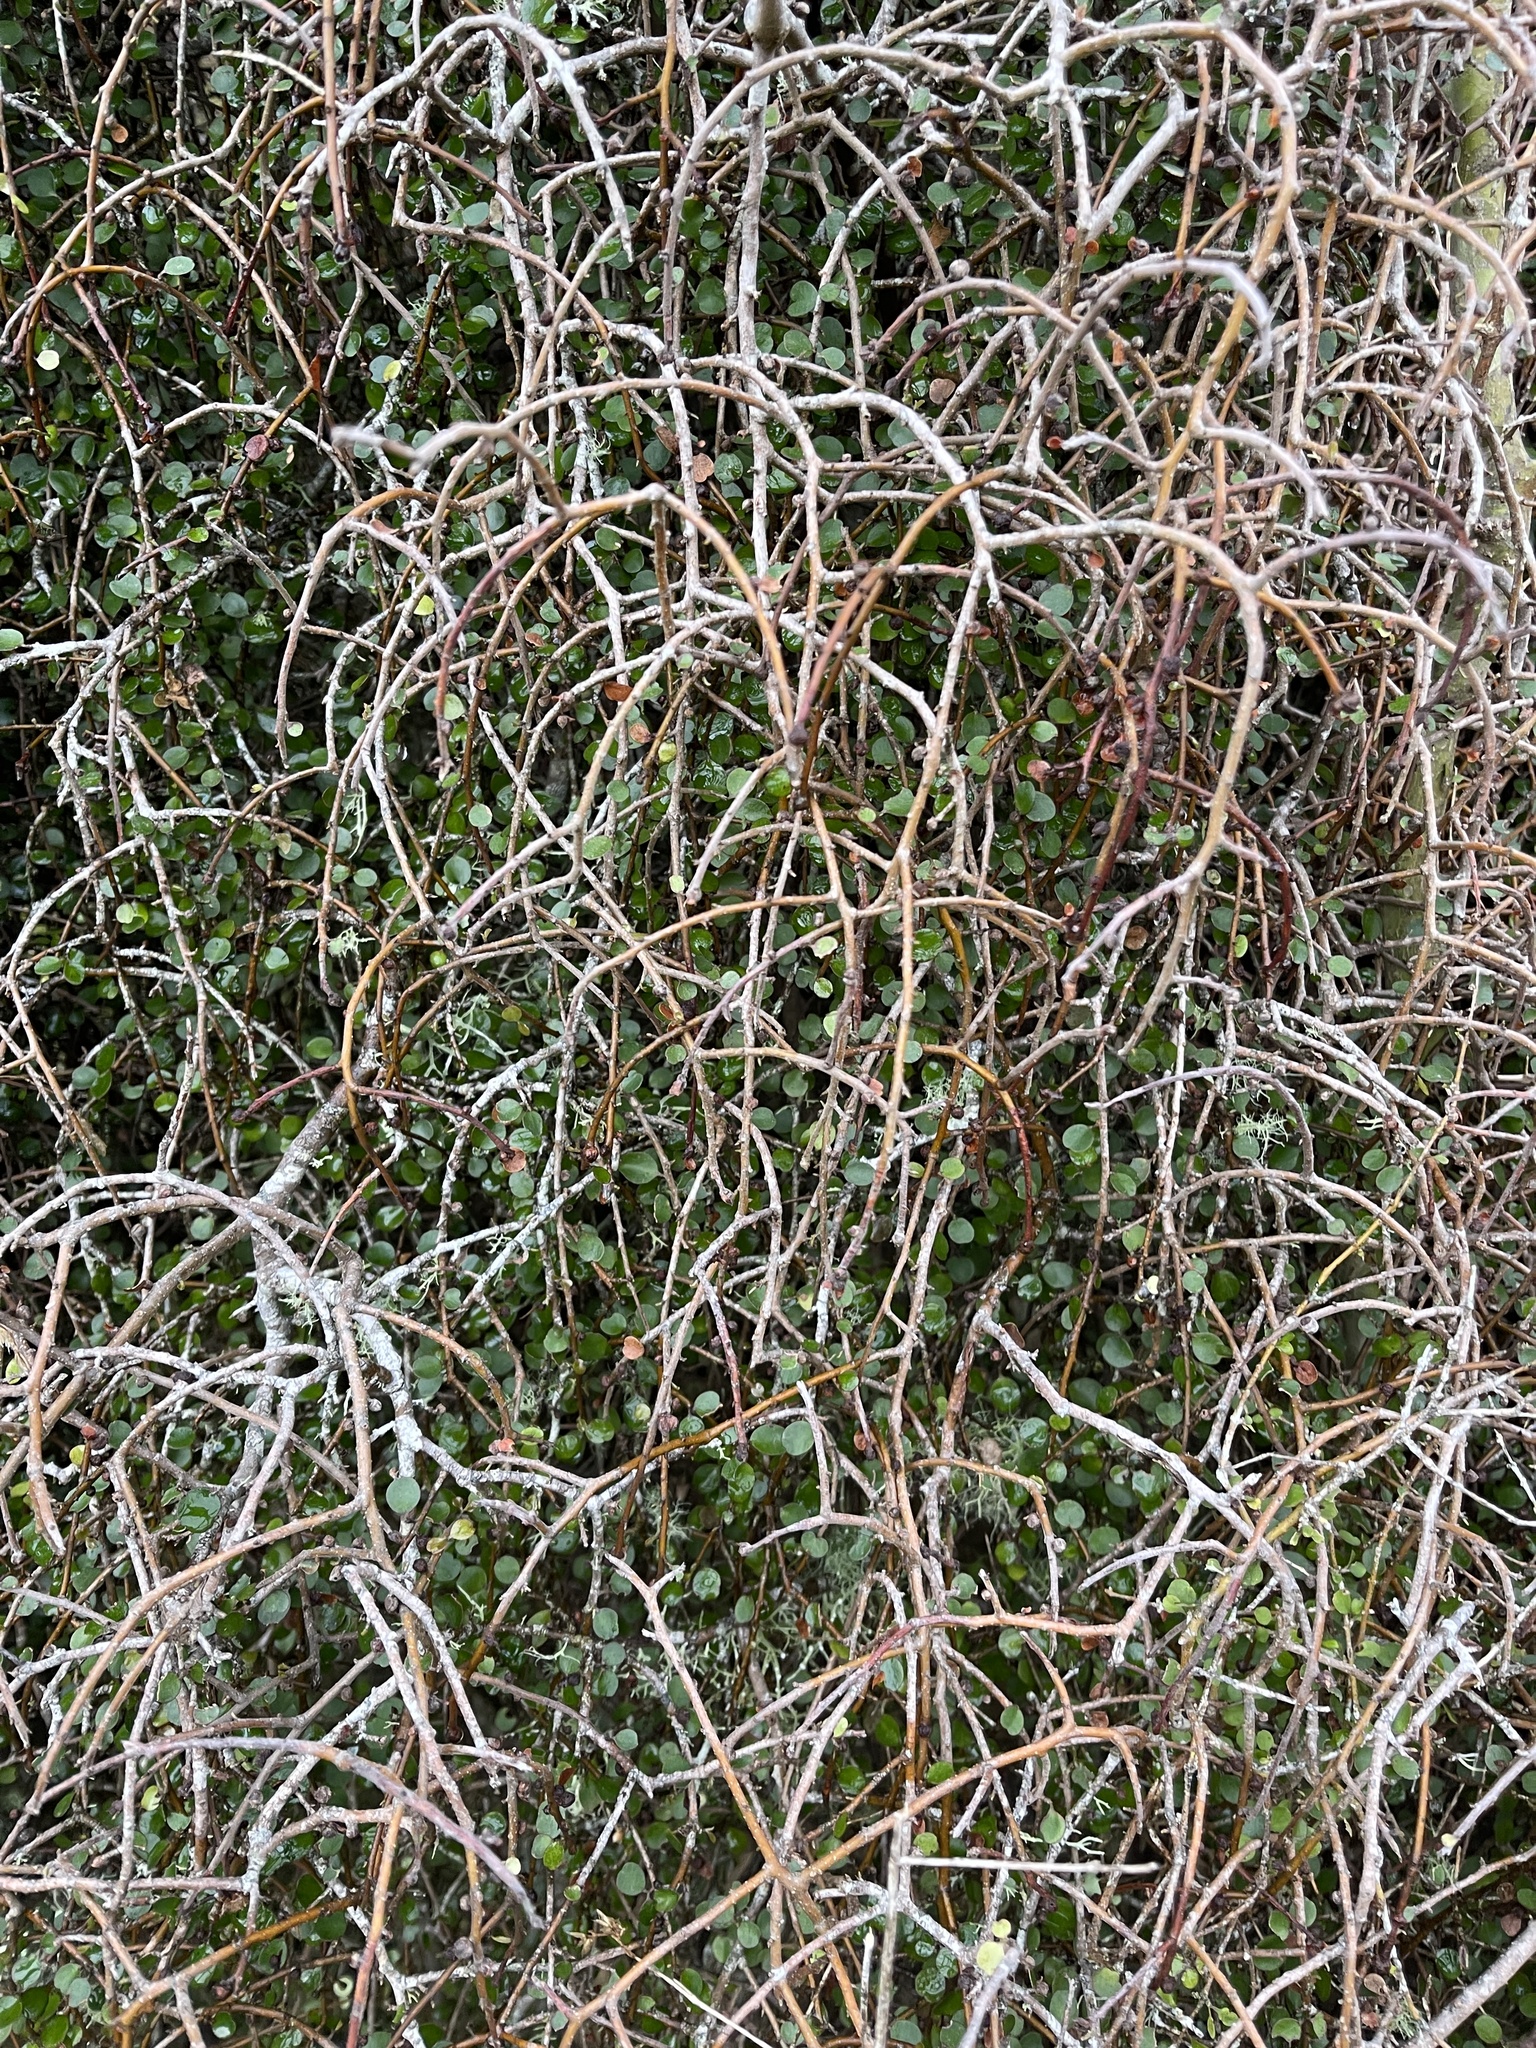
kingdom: Plantae
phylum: Tracheophyta
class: Magnoliopsida
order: Ericales
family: Primulaceae
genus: Myrsine
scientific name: Myrsine divaricata
